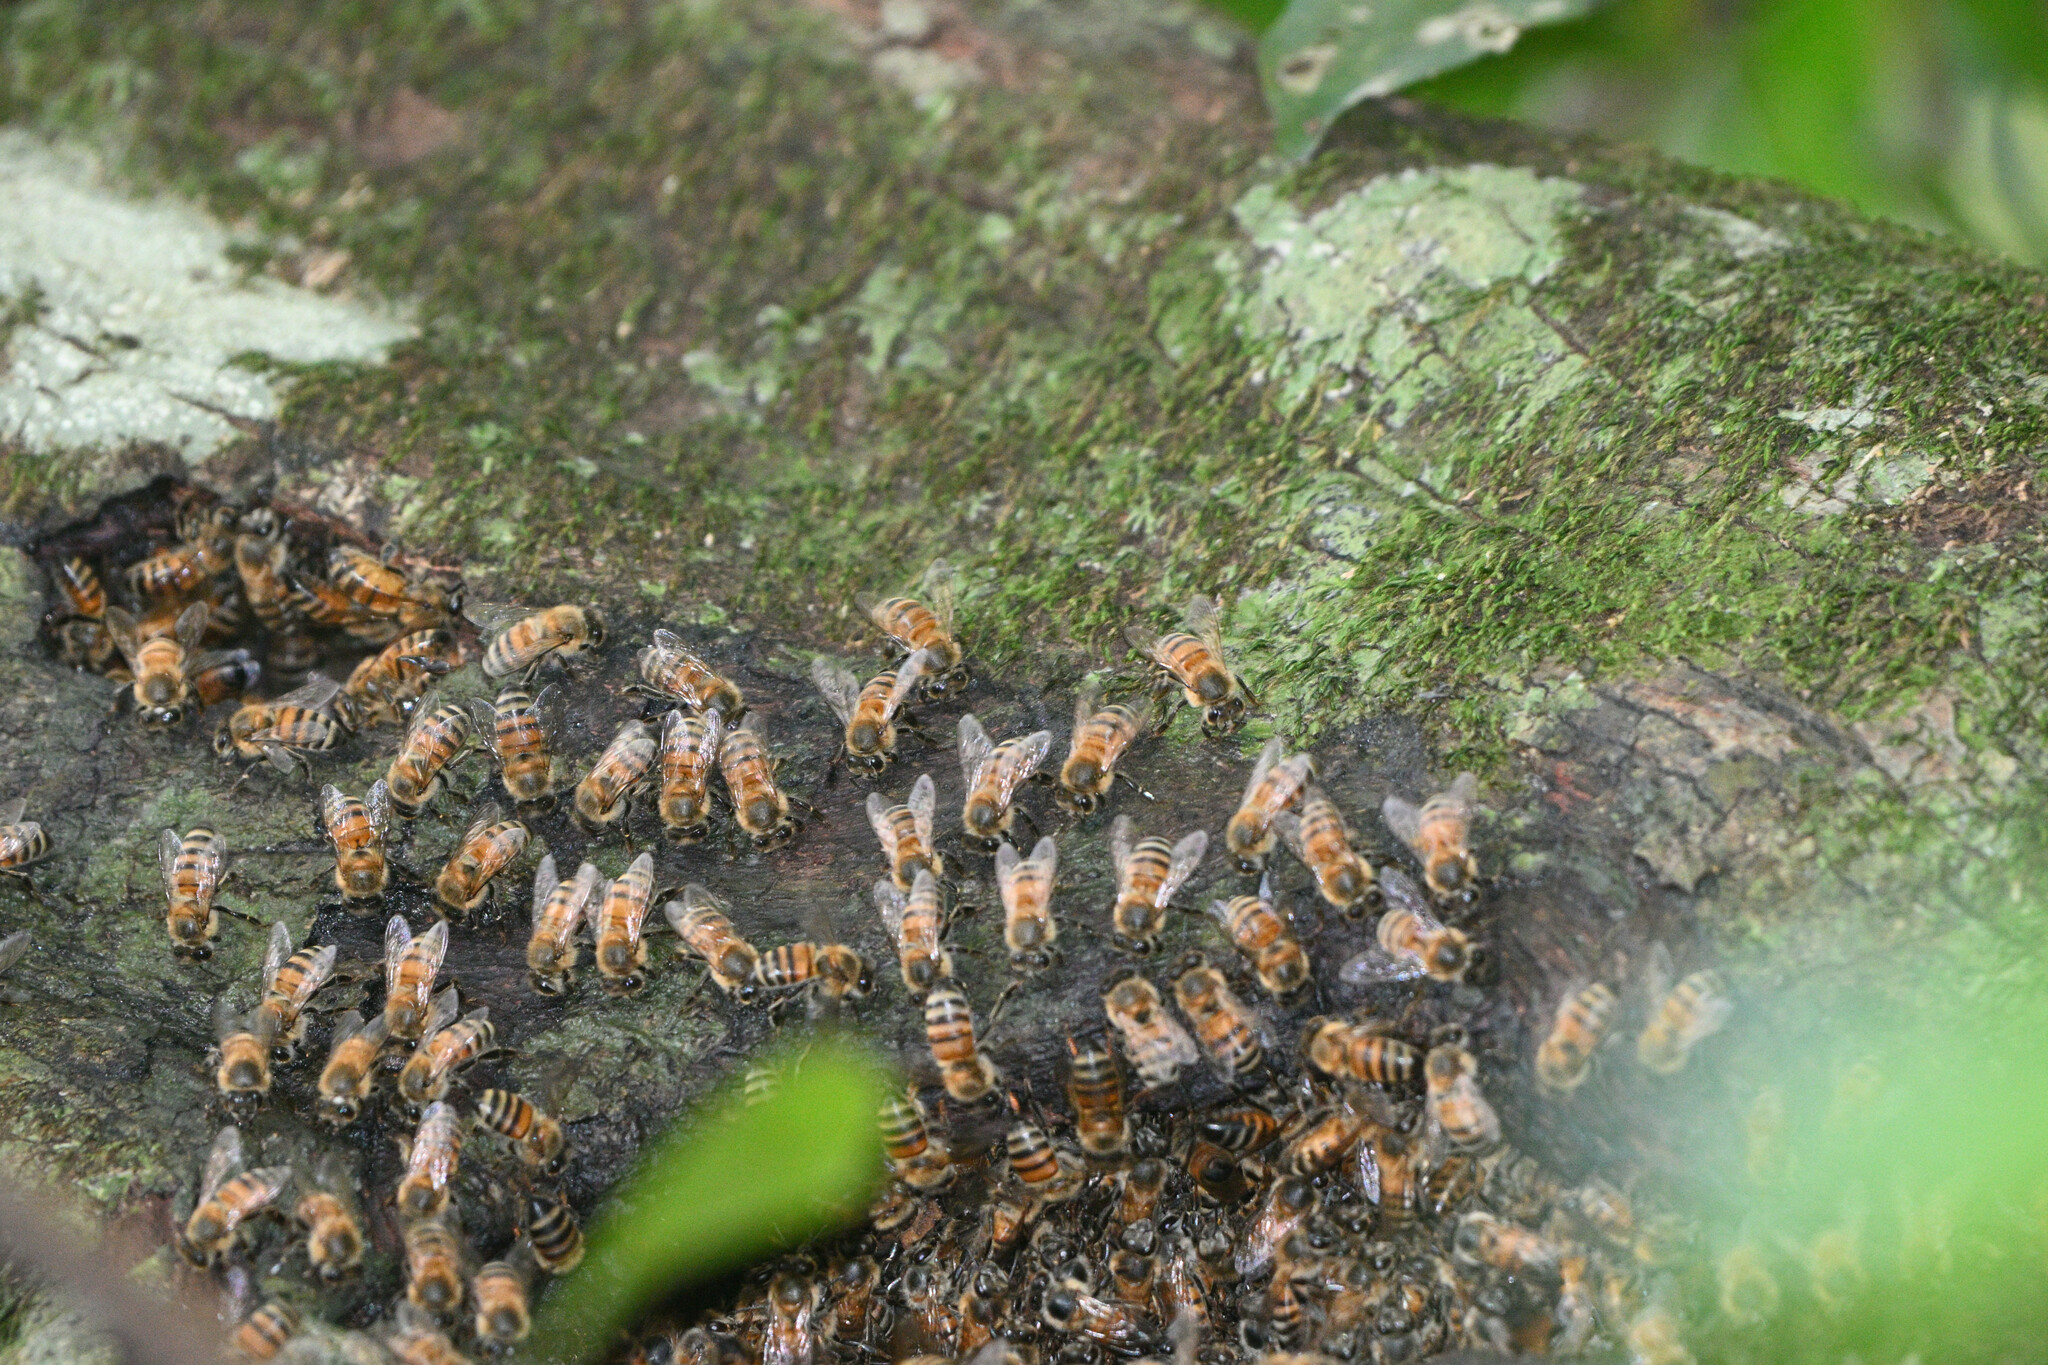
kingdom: Animalia
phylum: Arthropoda
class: Insecta
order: Hymenoptera
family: Apidae
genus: Apis
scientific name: Apis mellifera
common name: Honey bee
